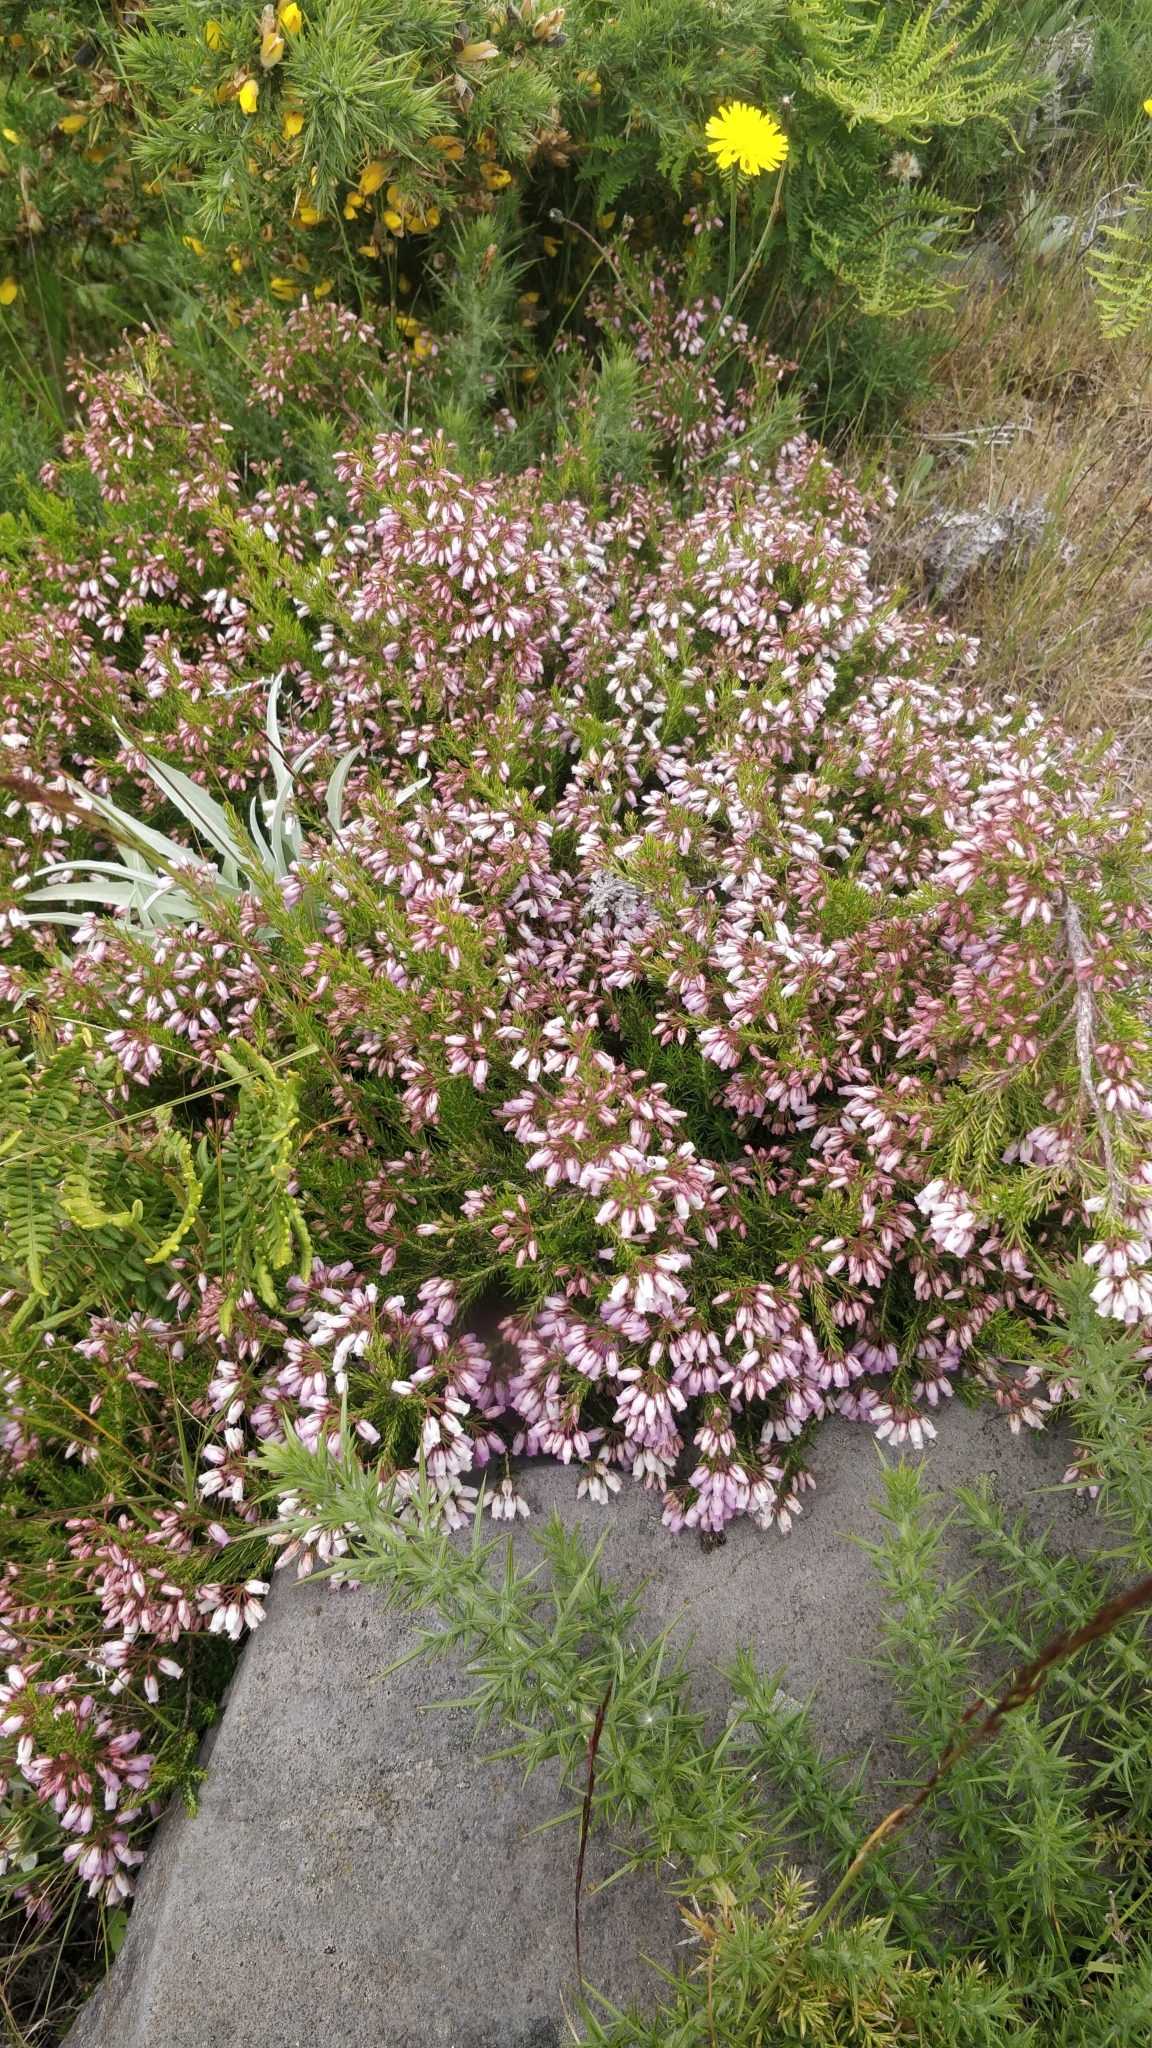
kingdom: Plantae
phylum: Tracheophyta
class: Magnoliopsida
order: Ericales
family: Ericaceae
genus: Erica
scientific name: Erica maderensis
